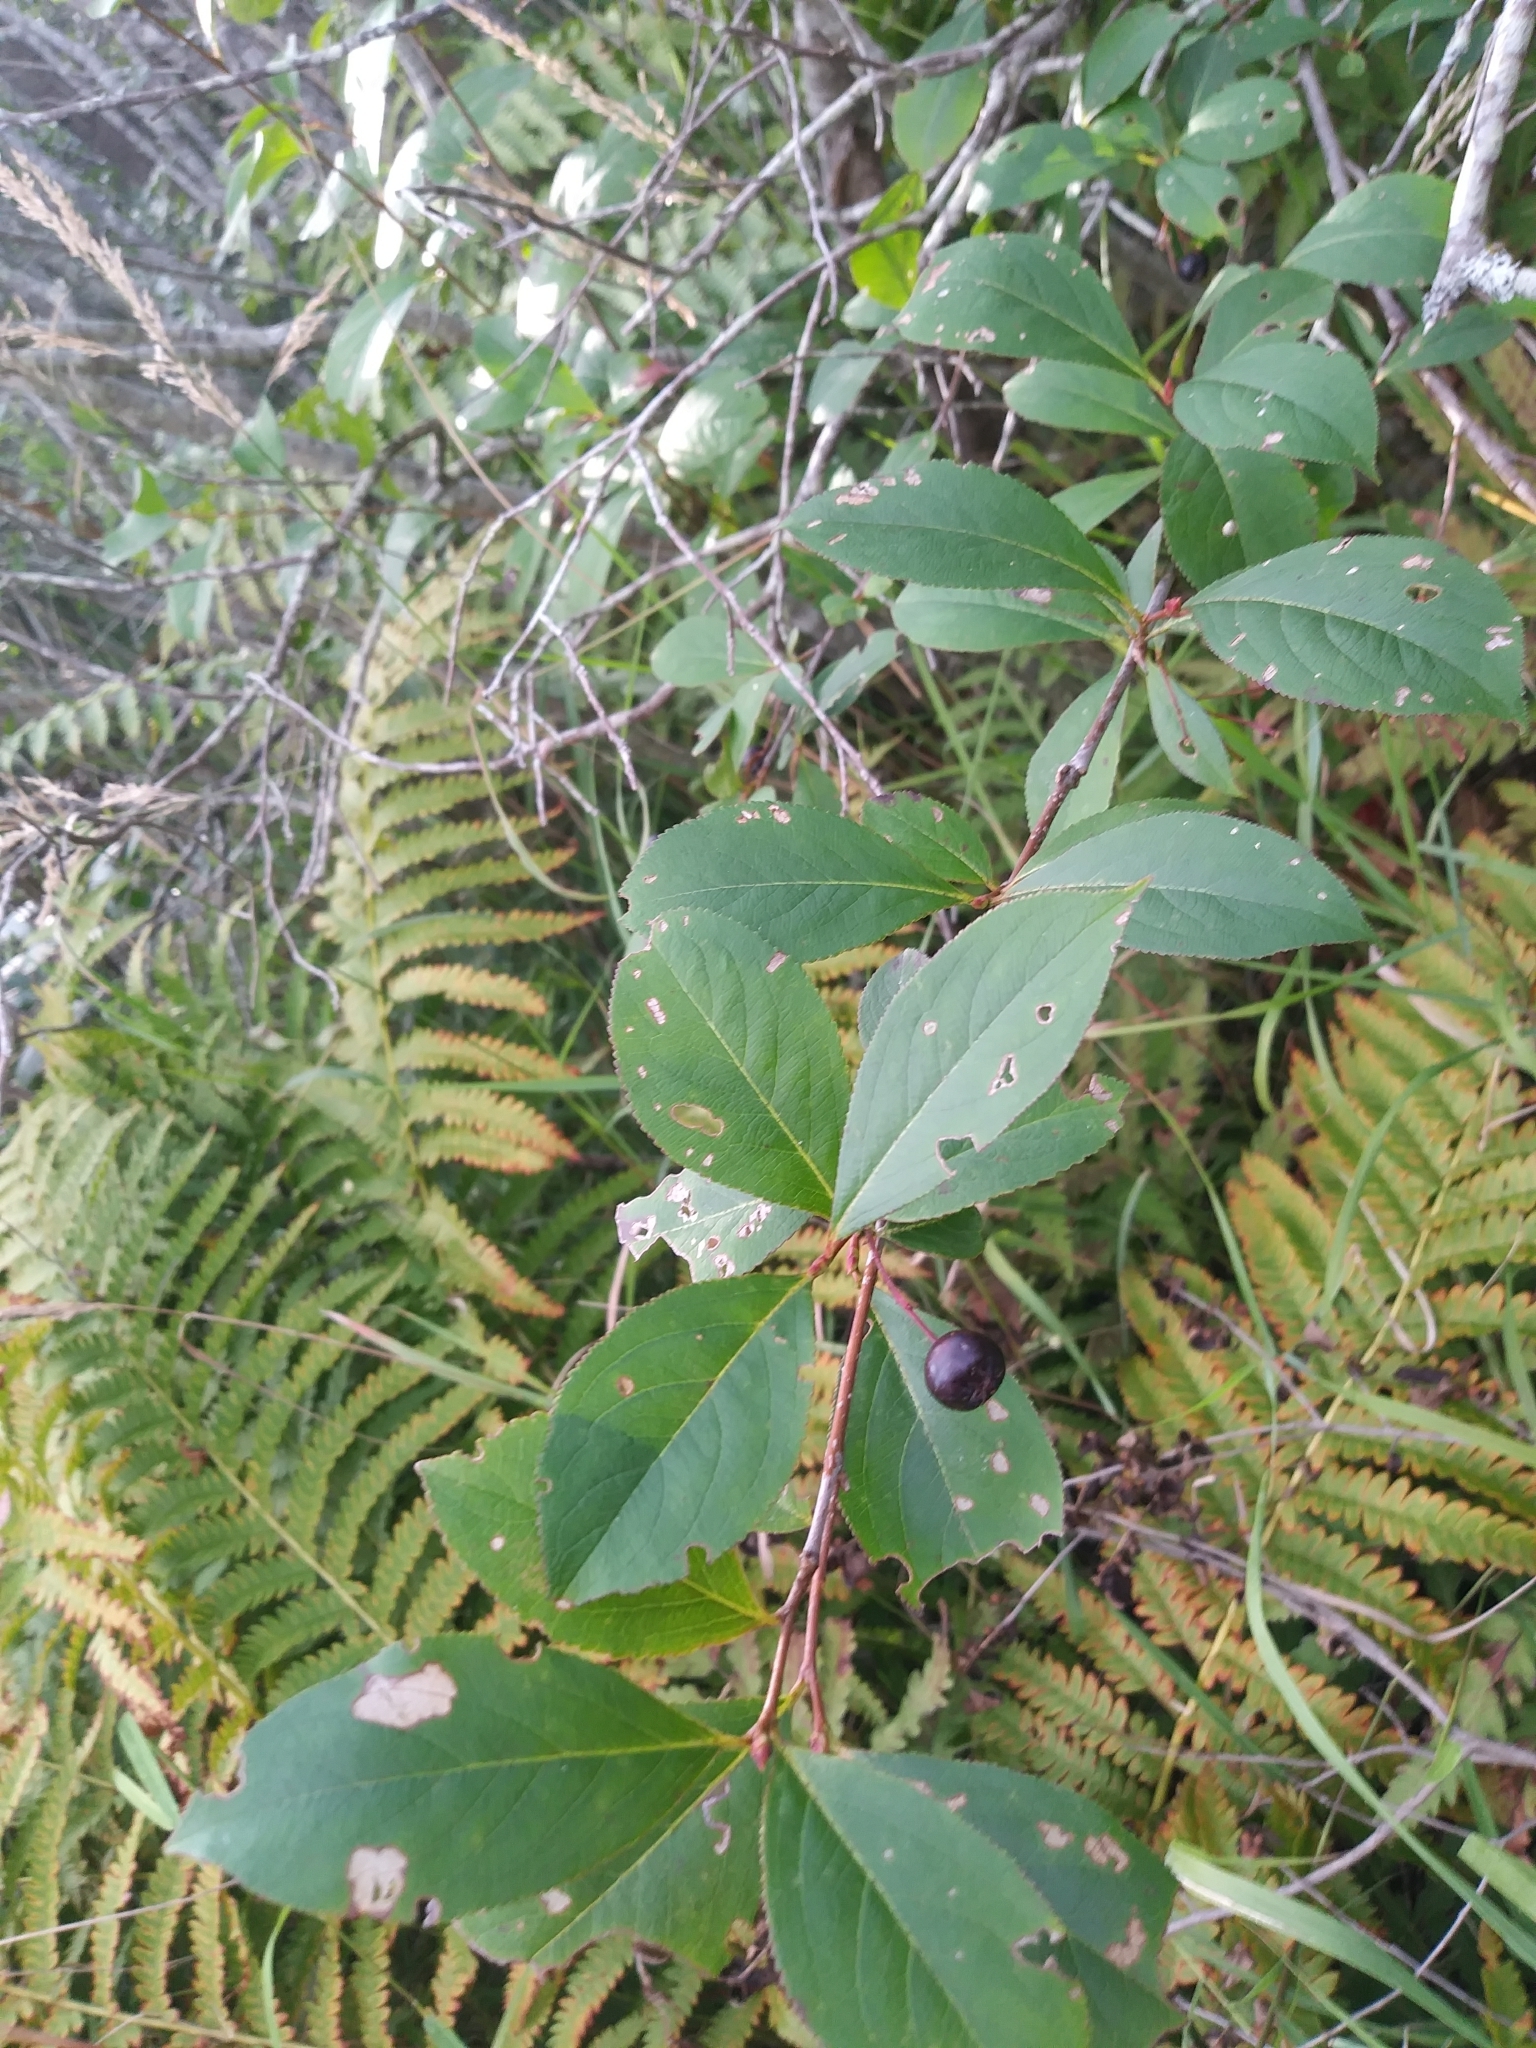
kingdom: Plantae
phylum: Tracheophyta
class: Magnoliopsida
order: Rosales
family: Rosaceae
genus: Aronia
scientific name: Aronia melanocarpa
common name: Black chokeberry
